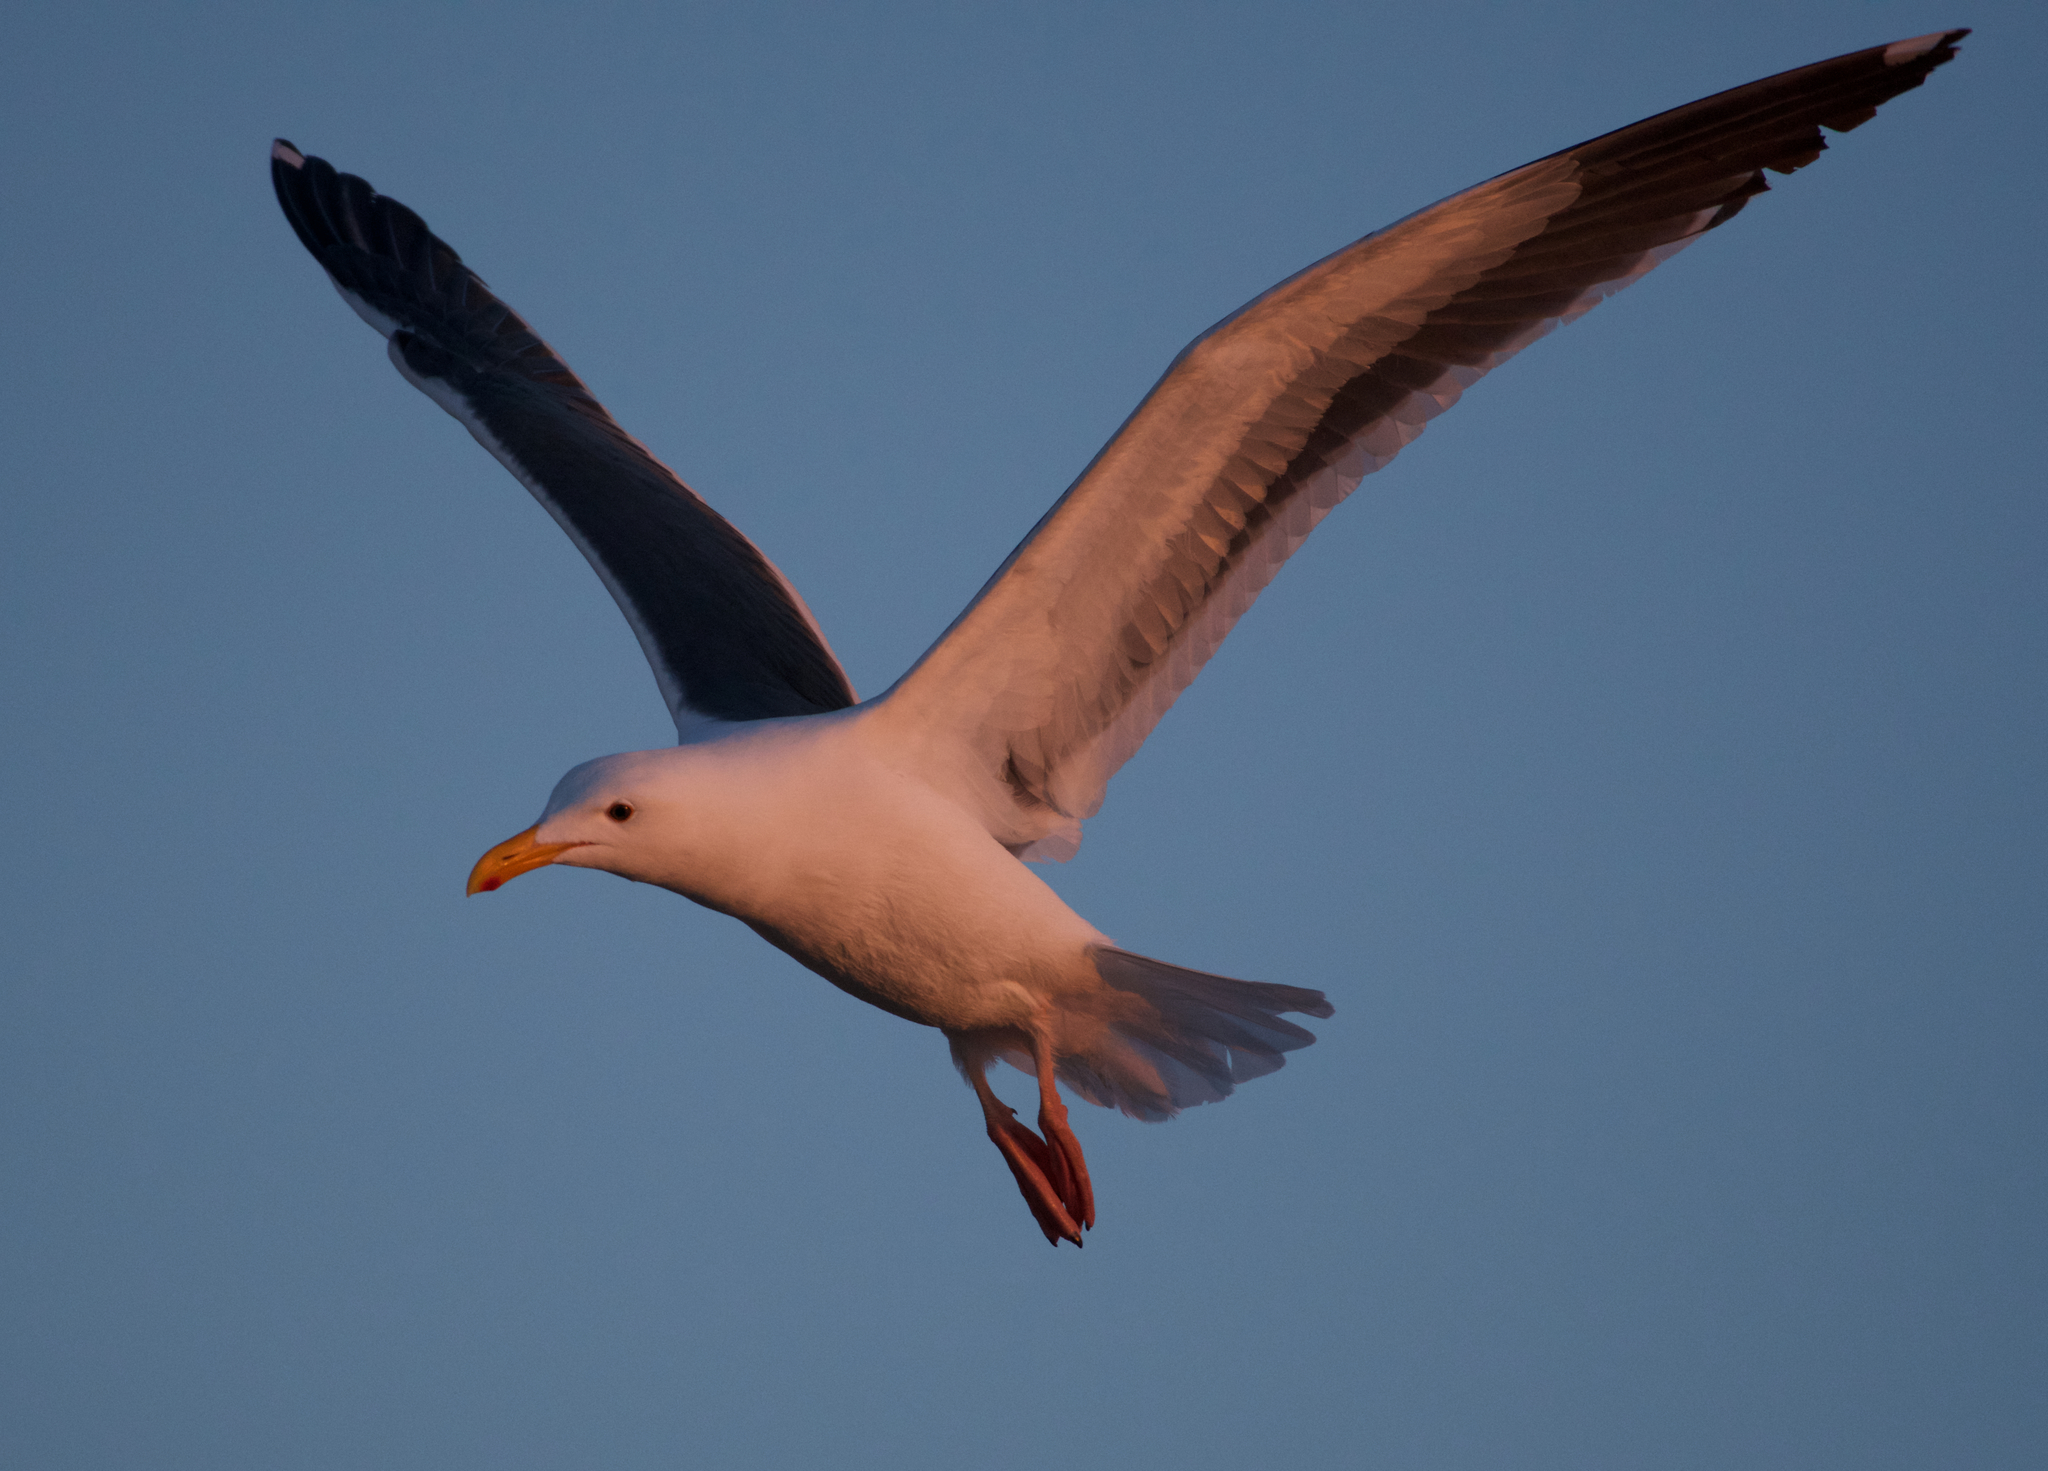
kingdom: Animalia
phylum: Chordata
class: Aves
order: Charadriiformes
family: Laridae
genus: Larus
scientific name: Larus occidentalis
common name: Western gull
